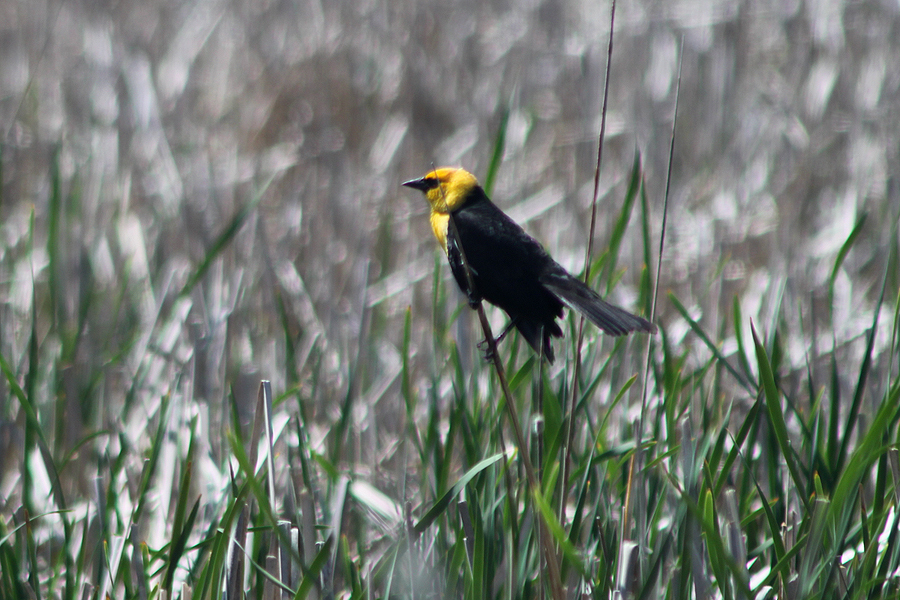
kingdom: Animalia
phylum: Chordata
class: Aves
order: Passeriformes
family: Icteridae
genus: Xanthocephalus
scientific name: Xanthocephalus xanthocephalus
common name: Yellow-headed blackbird
